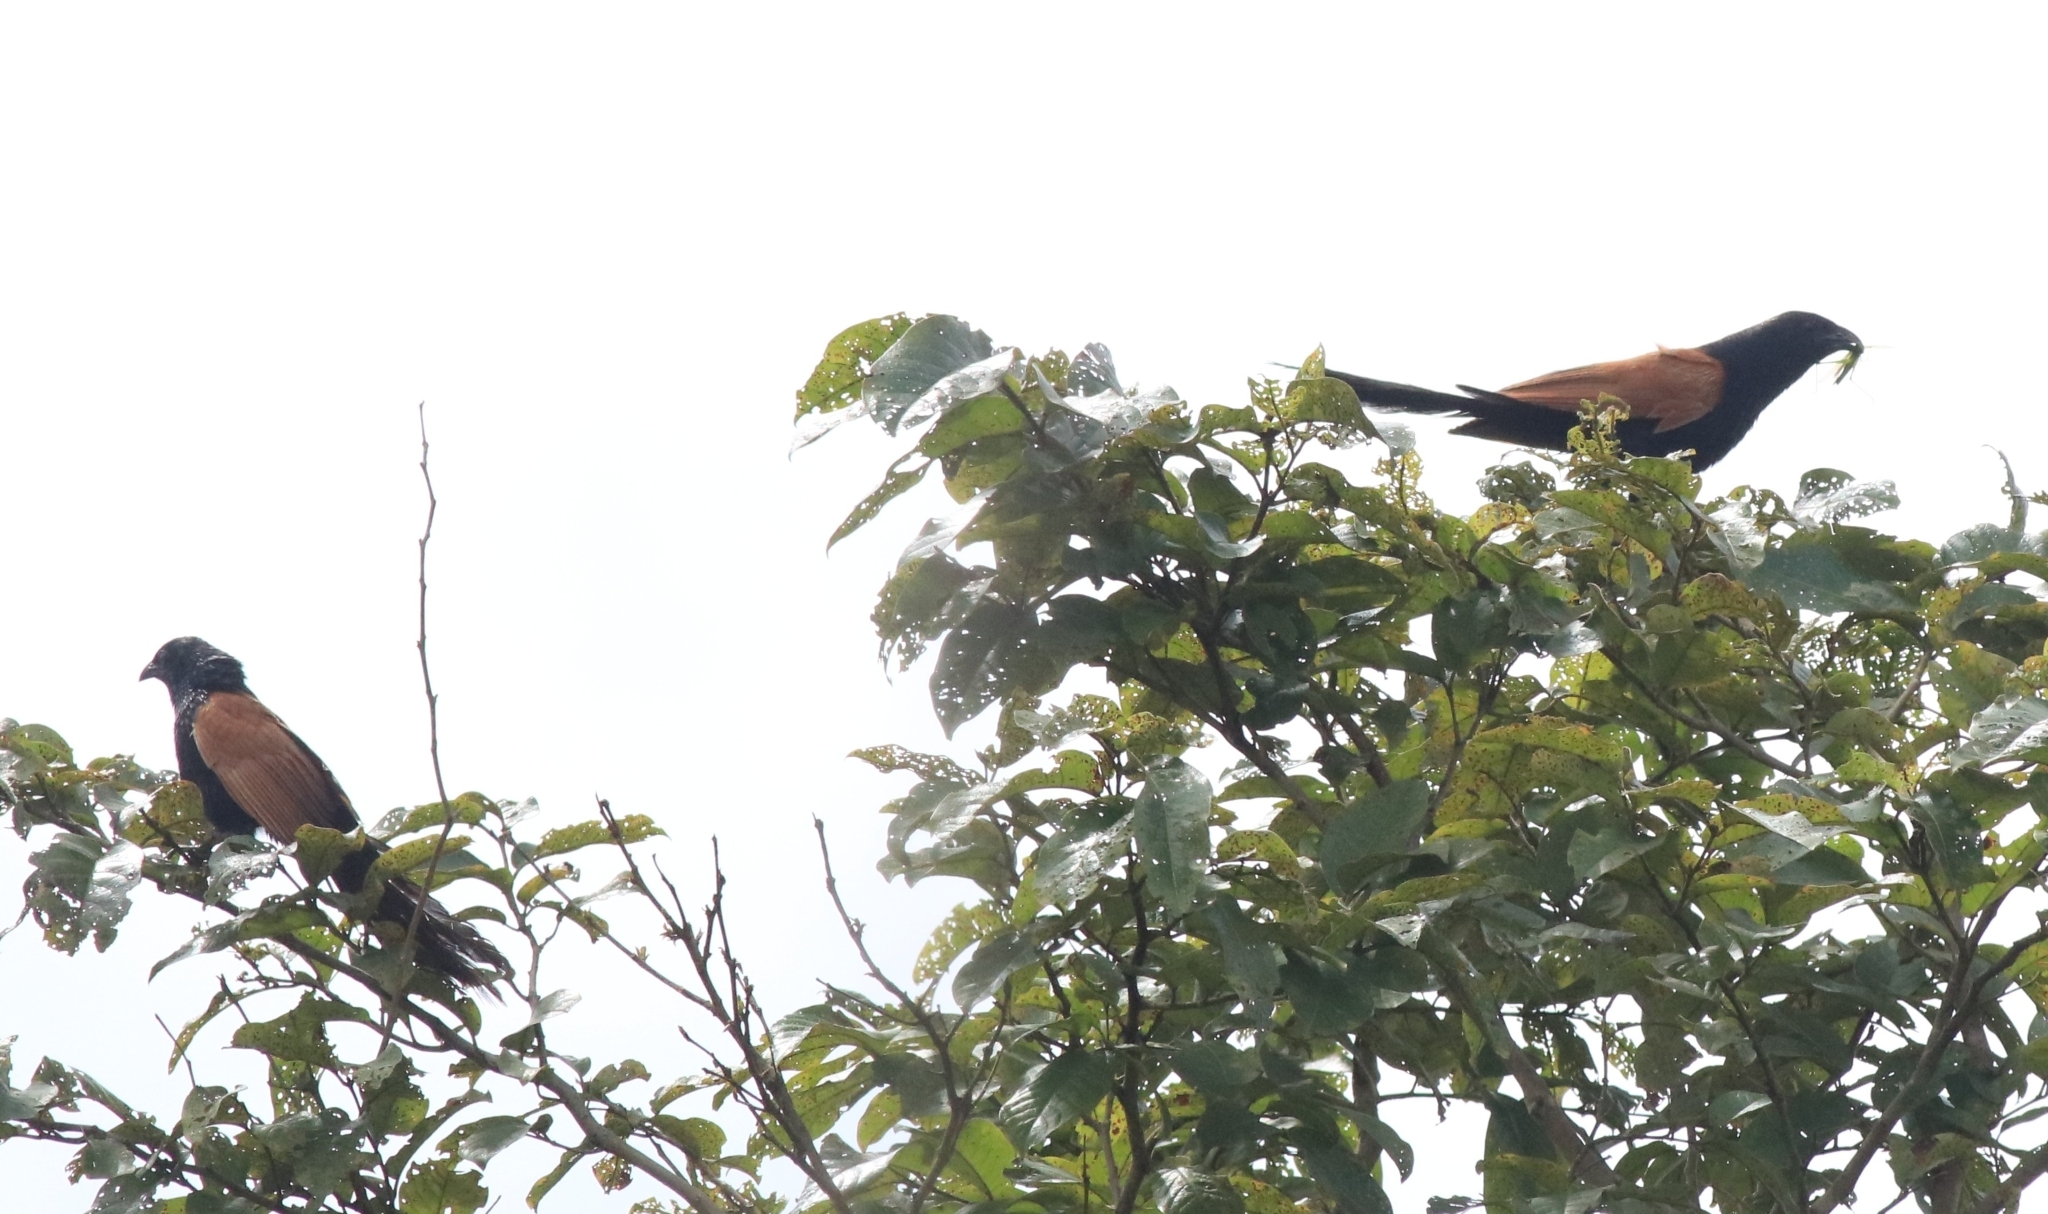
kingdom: Animalia
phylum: Chordata
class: Aves
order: Cuculiformes
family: Cuculidae
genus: Centropus
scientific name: Centropus bengalensis
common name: Lesser coucal
